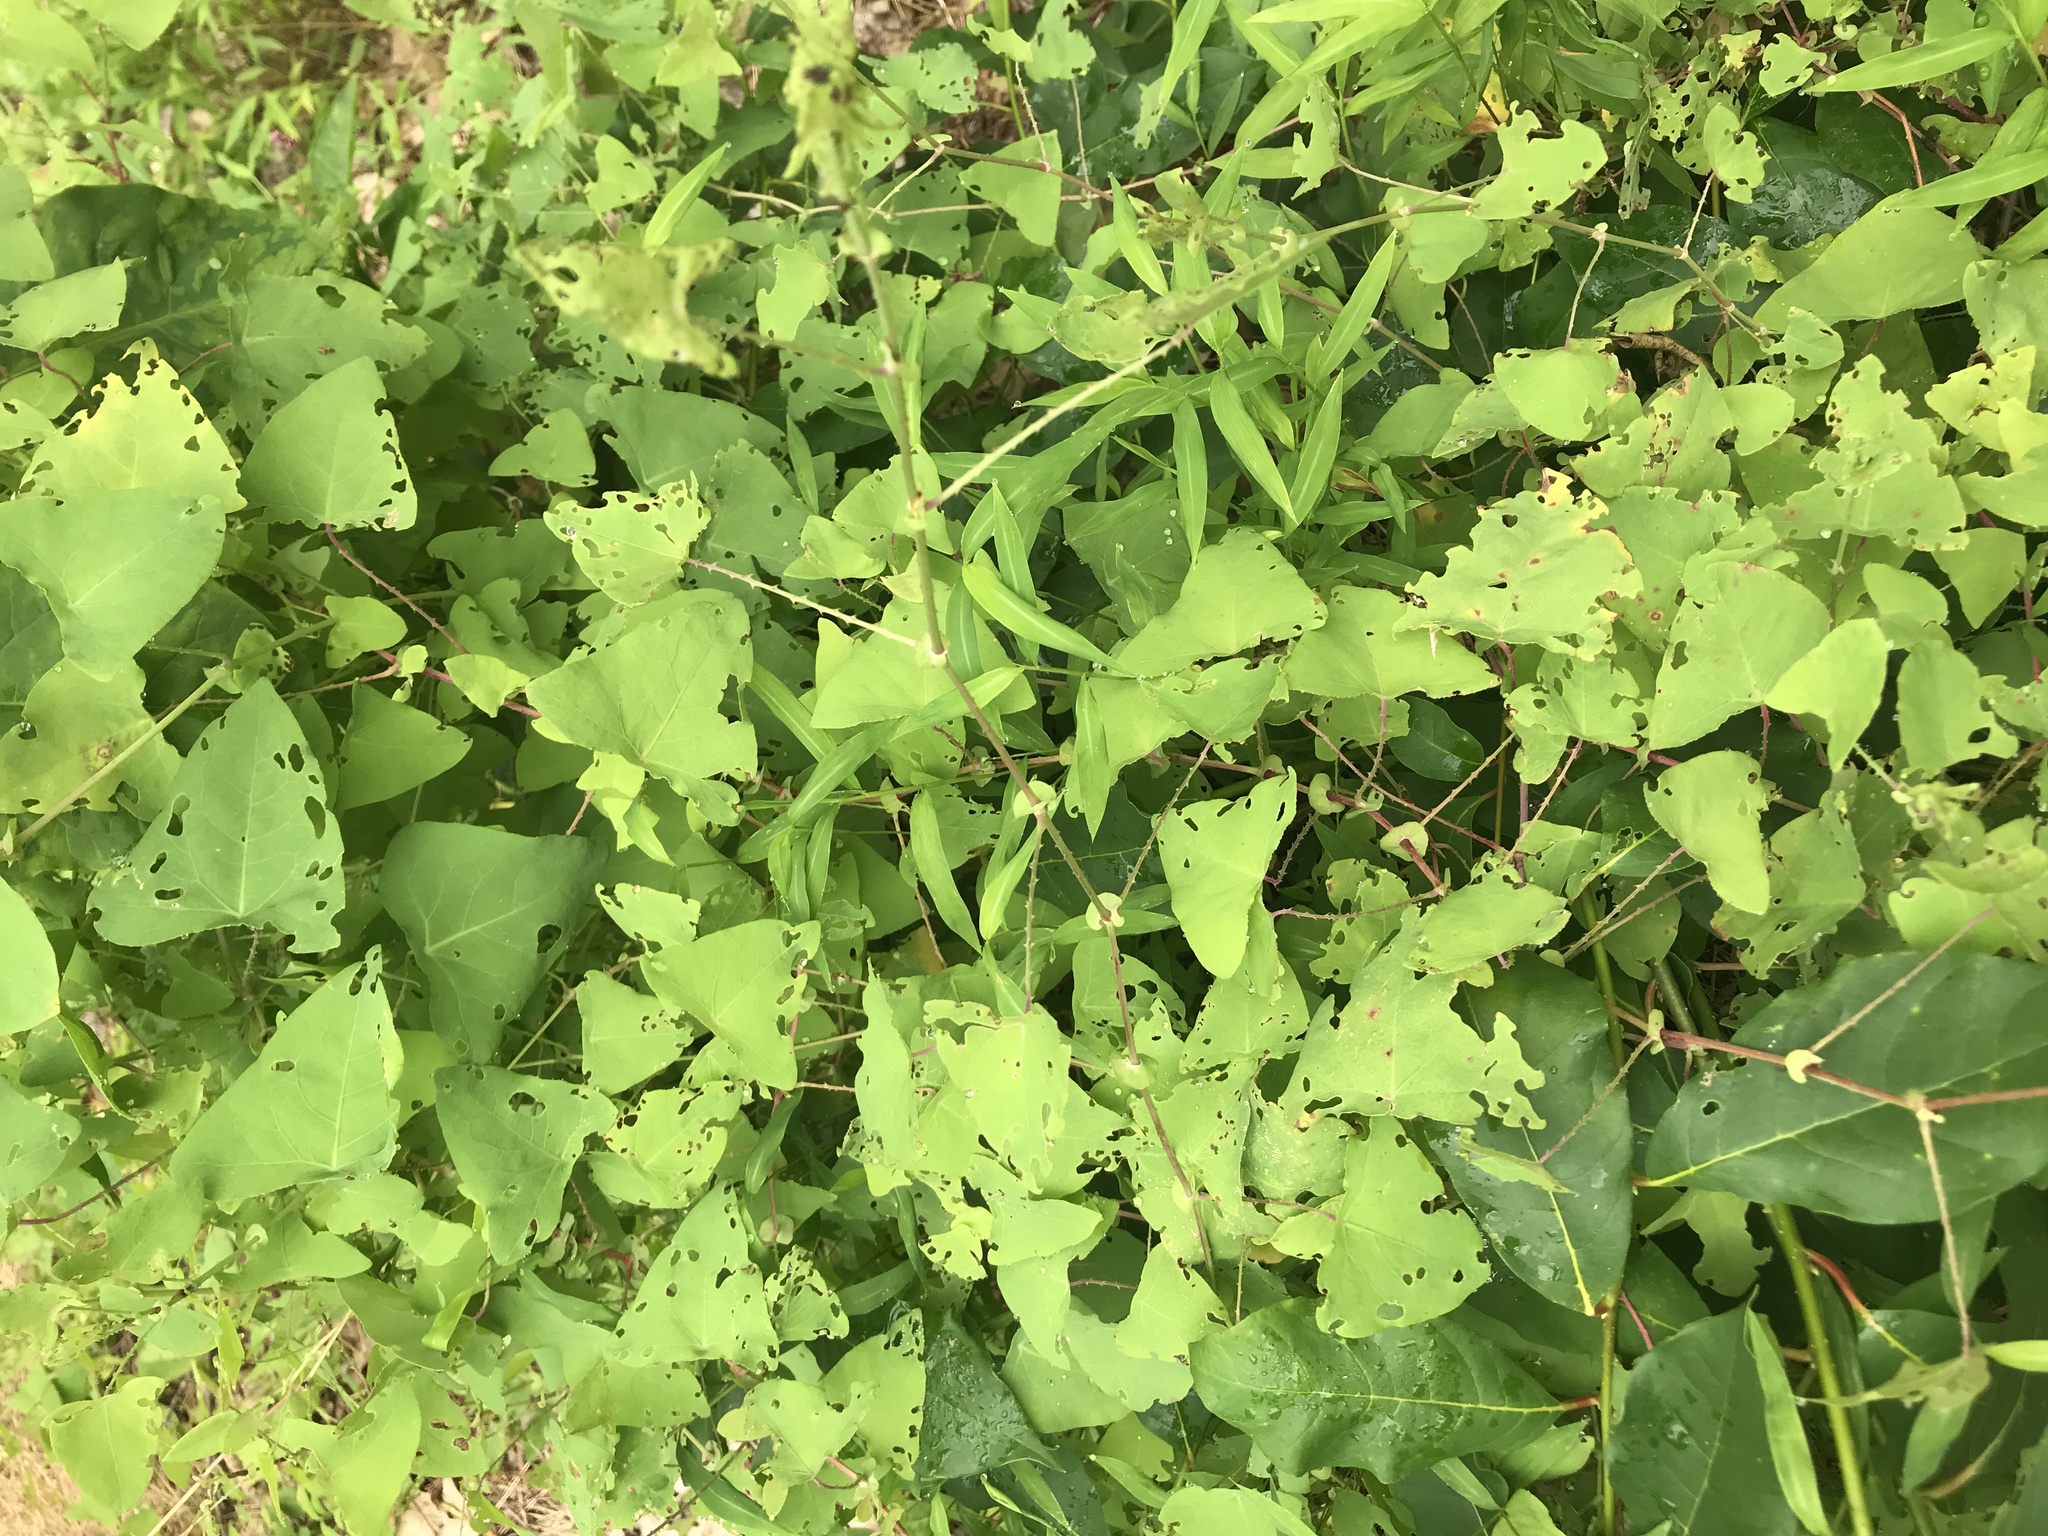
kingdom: Plantae
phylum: Tracheophyta
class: Magnoliopsida
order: Caryophyllales
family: Polygonaceae
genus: Persicaria
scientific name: Persicaria perfoliata
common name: Asiatic tearthumb
